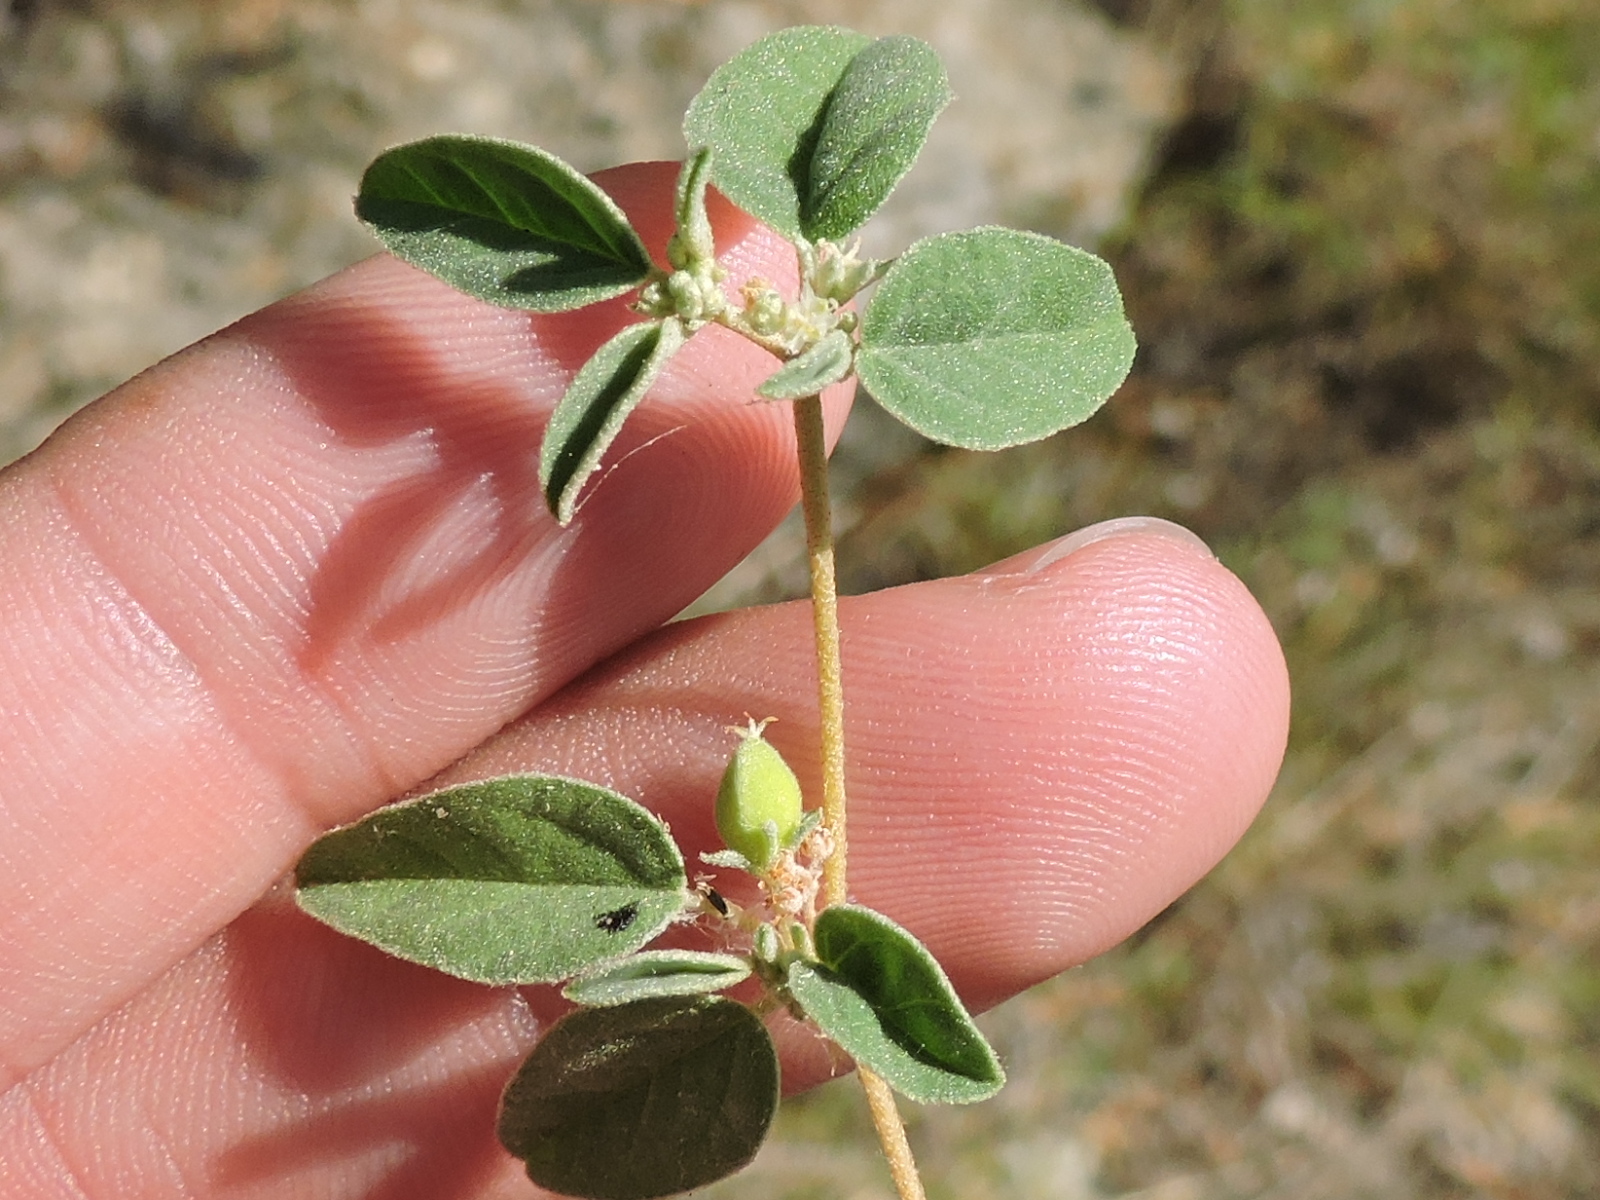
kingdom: Plantae
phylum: Tracheophyta
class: Magnoliopsida
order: Malpighiales
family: Euphorbiaceae
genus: Croton
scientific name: Croton monanthogynus
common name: One-seed croton
